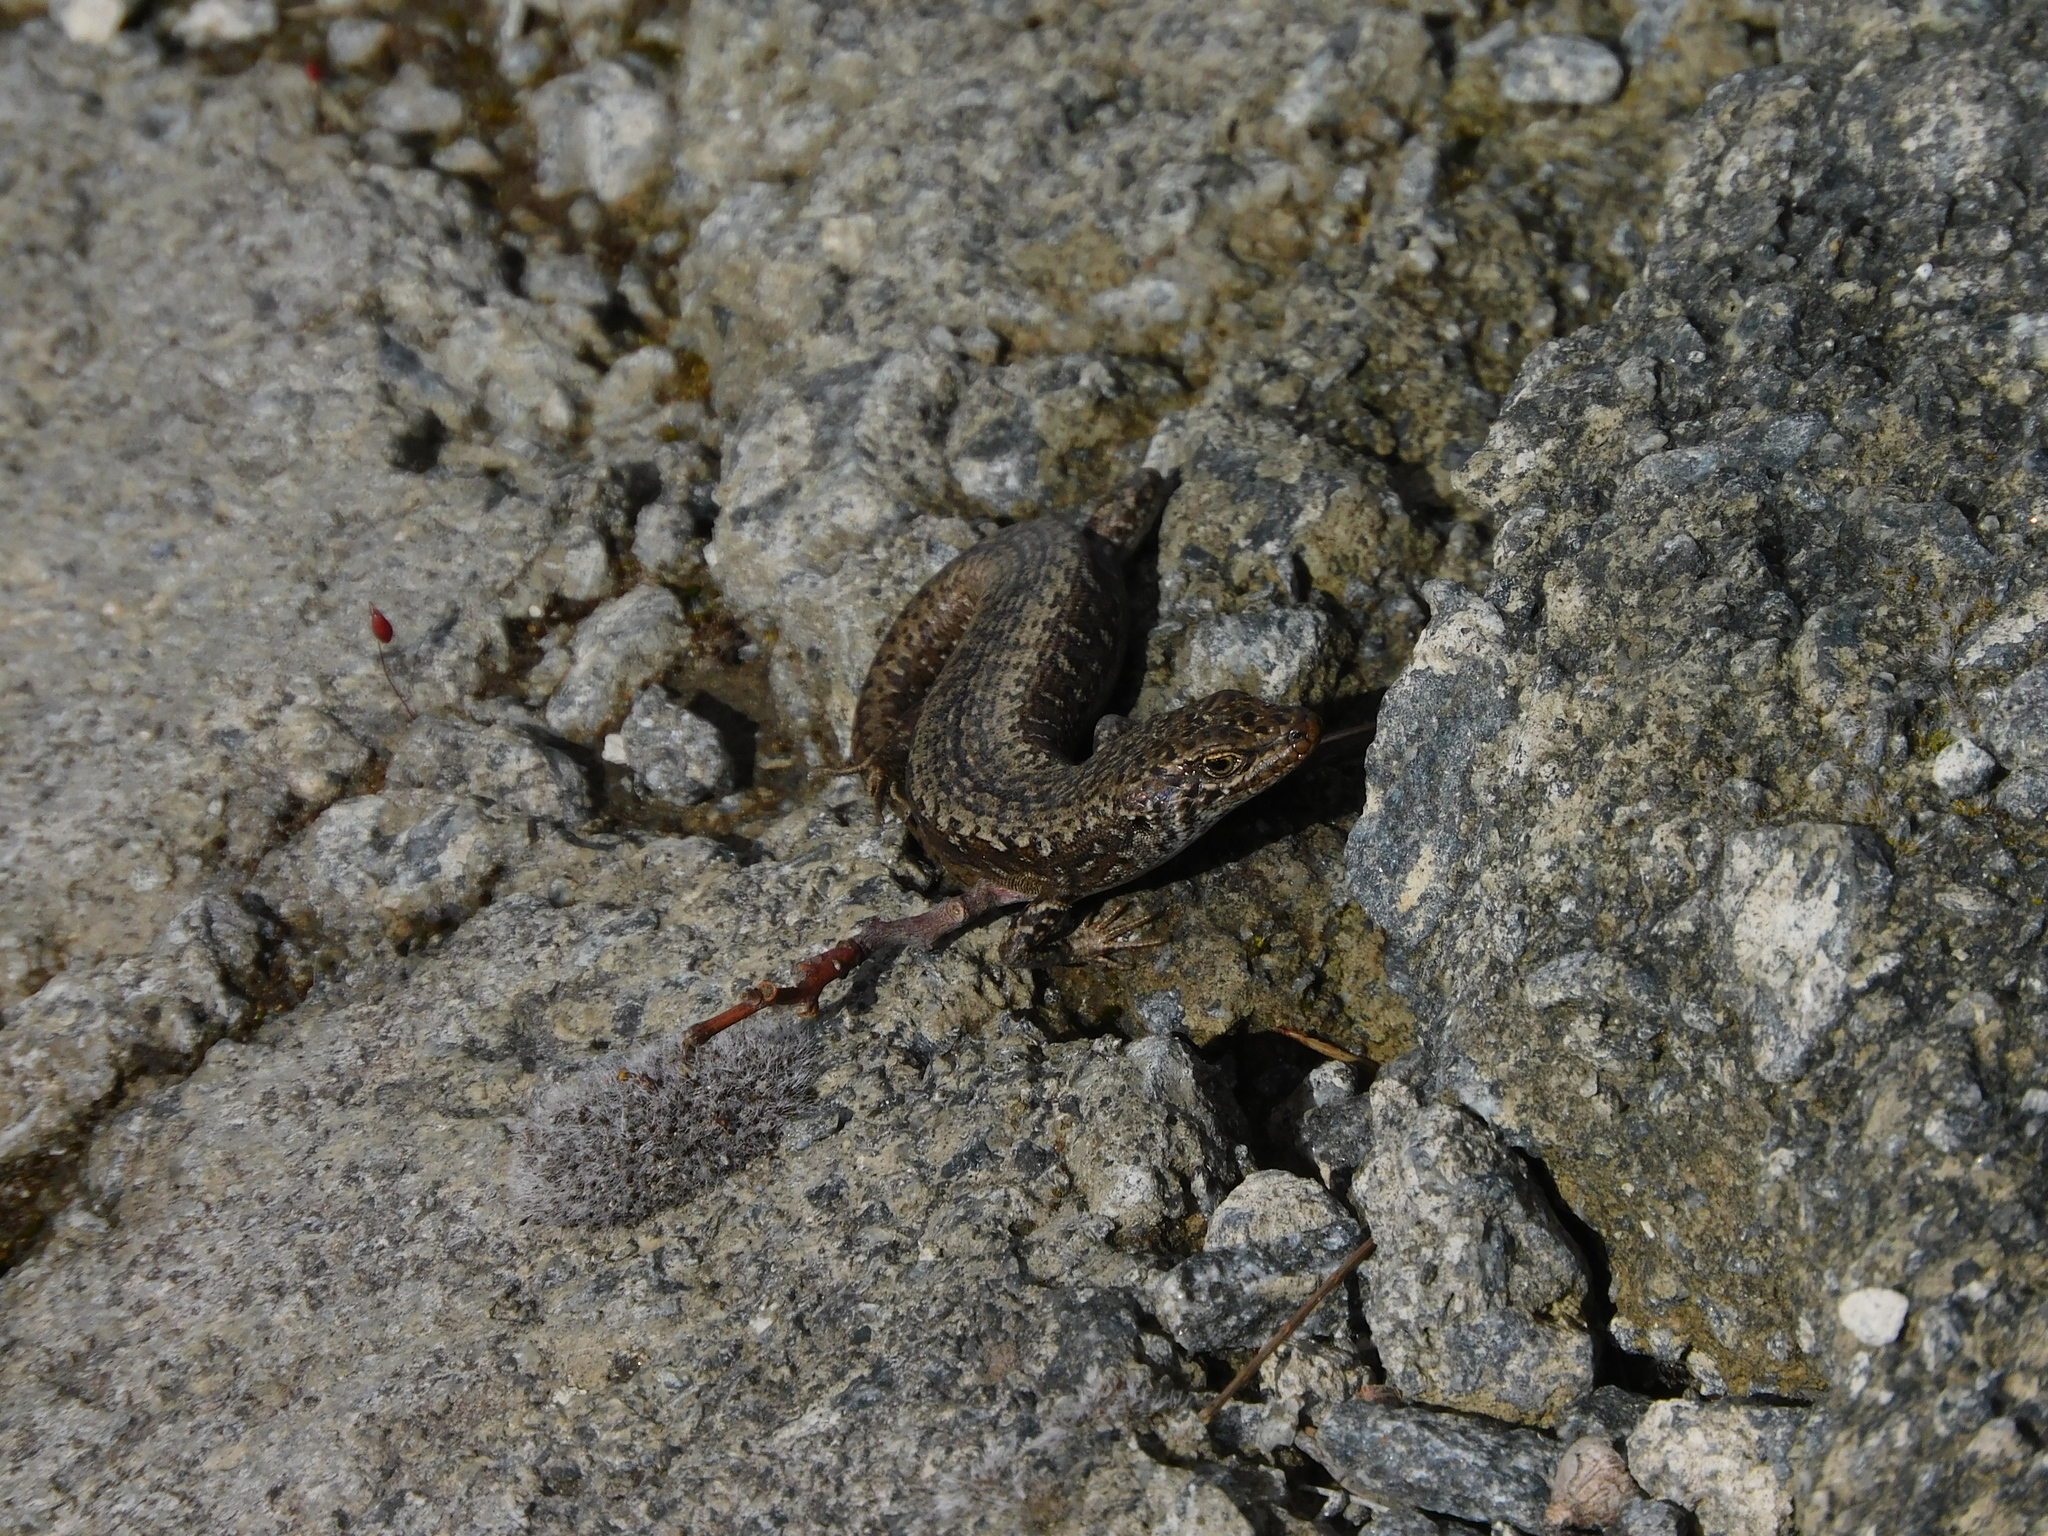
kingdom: Animalia
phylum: Chordata
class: Squamata
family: Scincidae
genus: Carinascincus
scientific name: Carinascincus ocellatus
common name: Ocellated cool-skink
